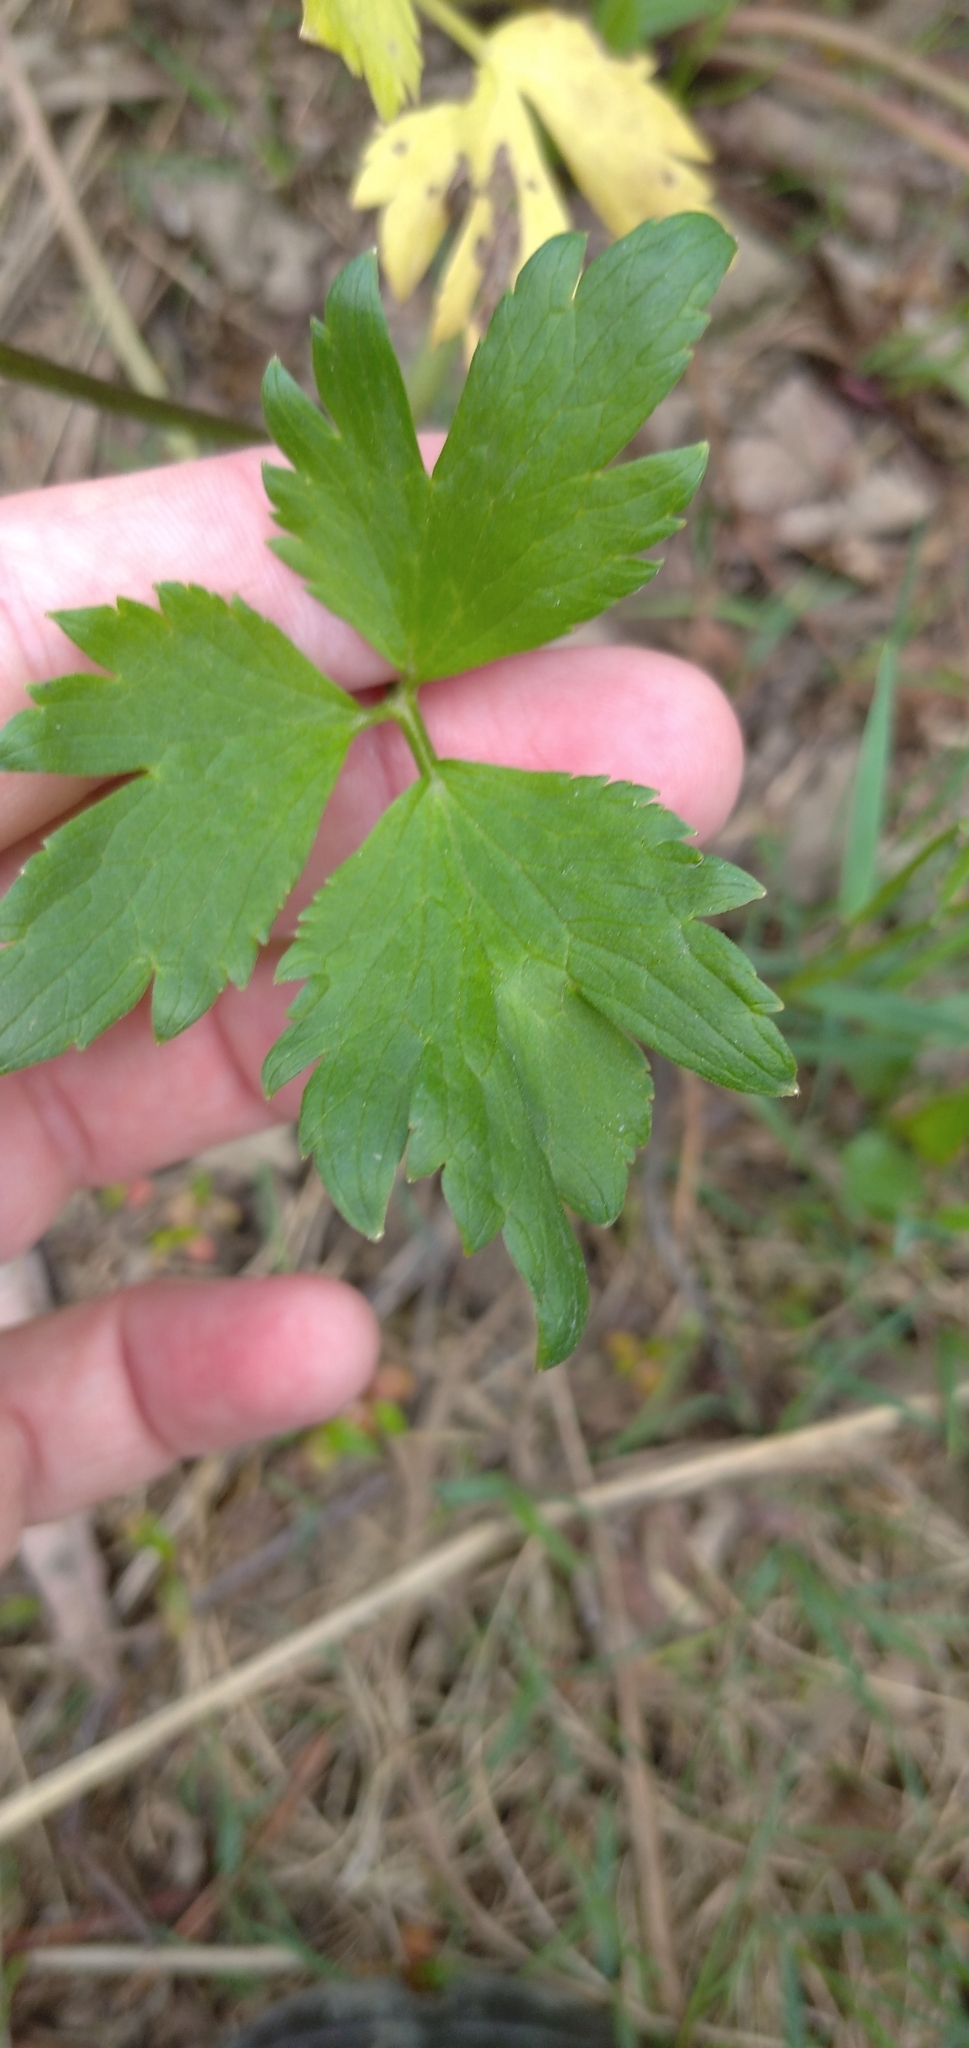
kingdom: Plantae
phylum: Tracheophyta
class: Magnoliopsida
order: Ranunculales
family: Ranunculaceae
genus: Ranunculus
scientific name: Ranunculus repens
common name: Creeping buttercup
